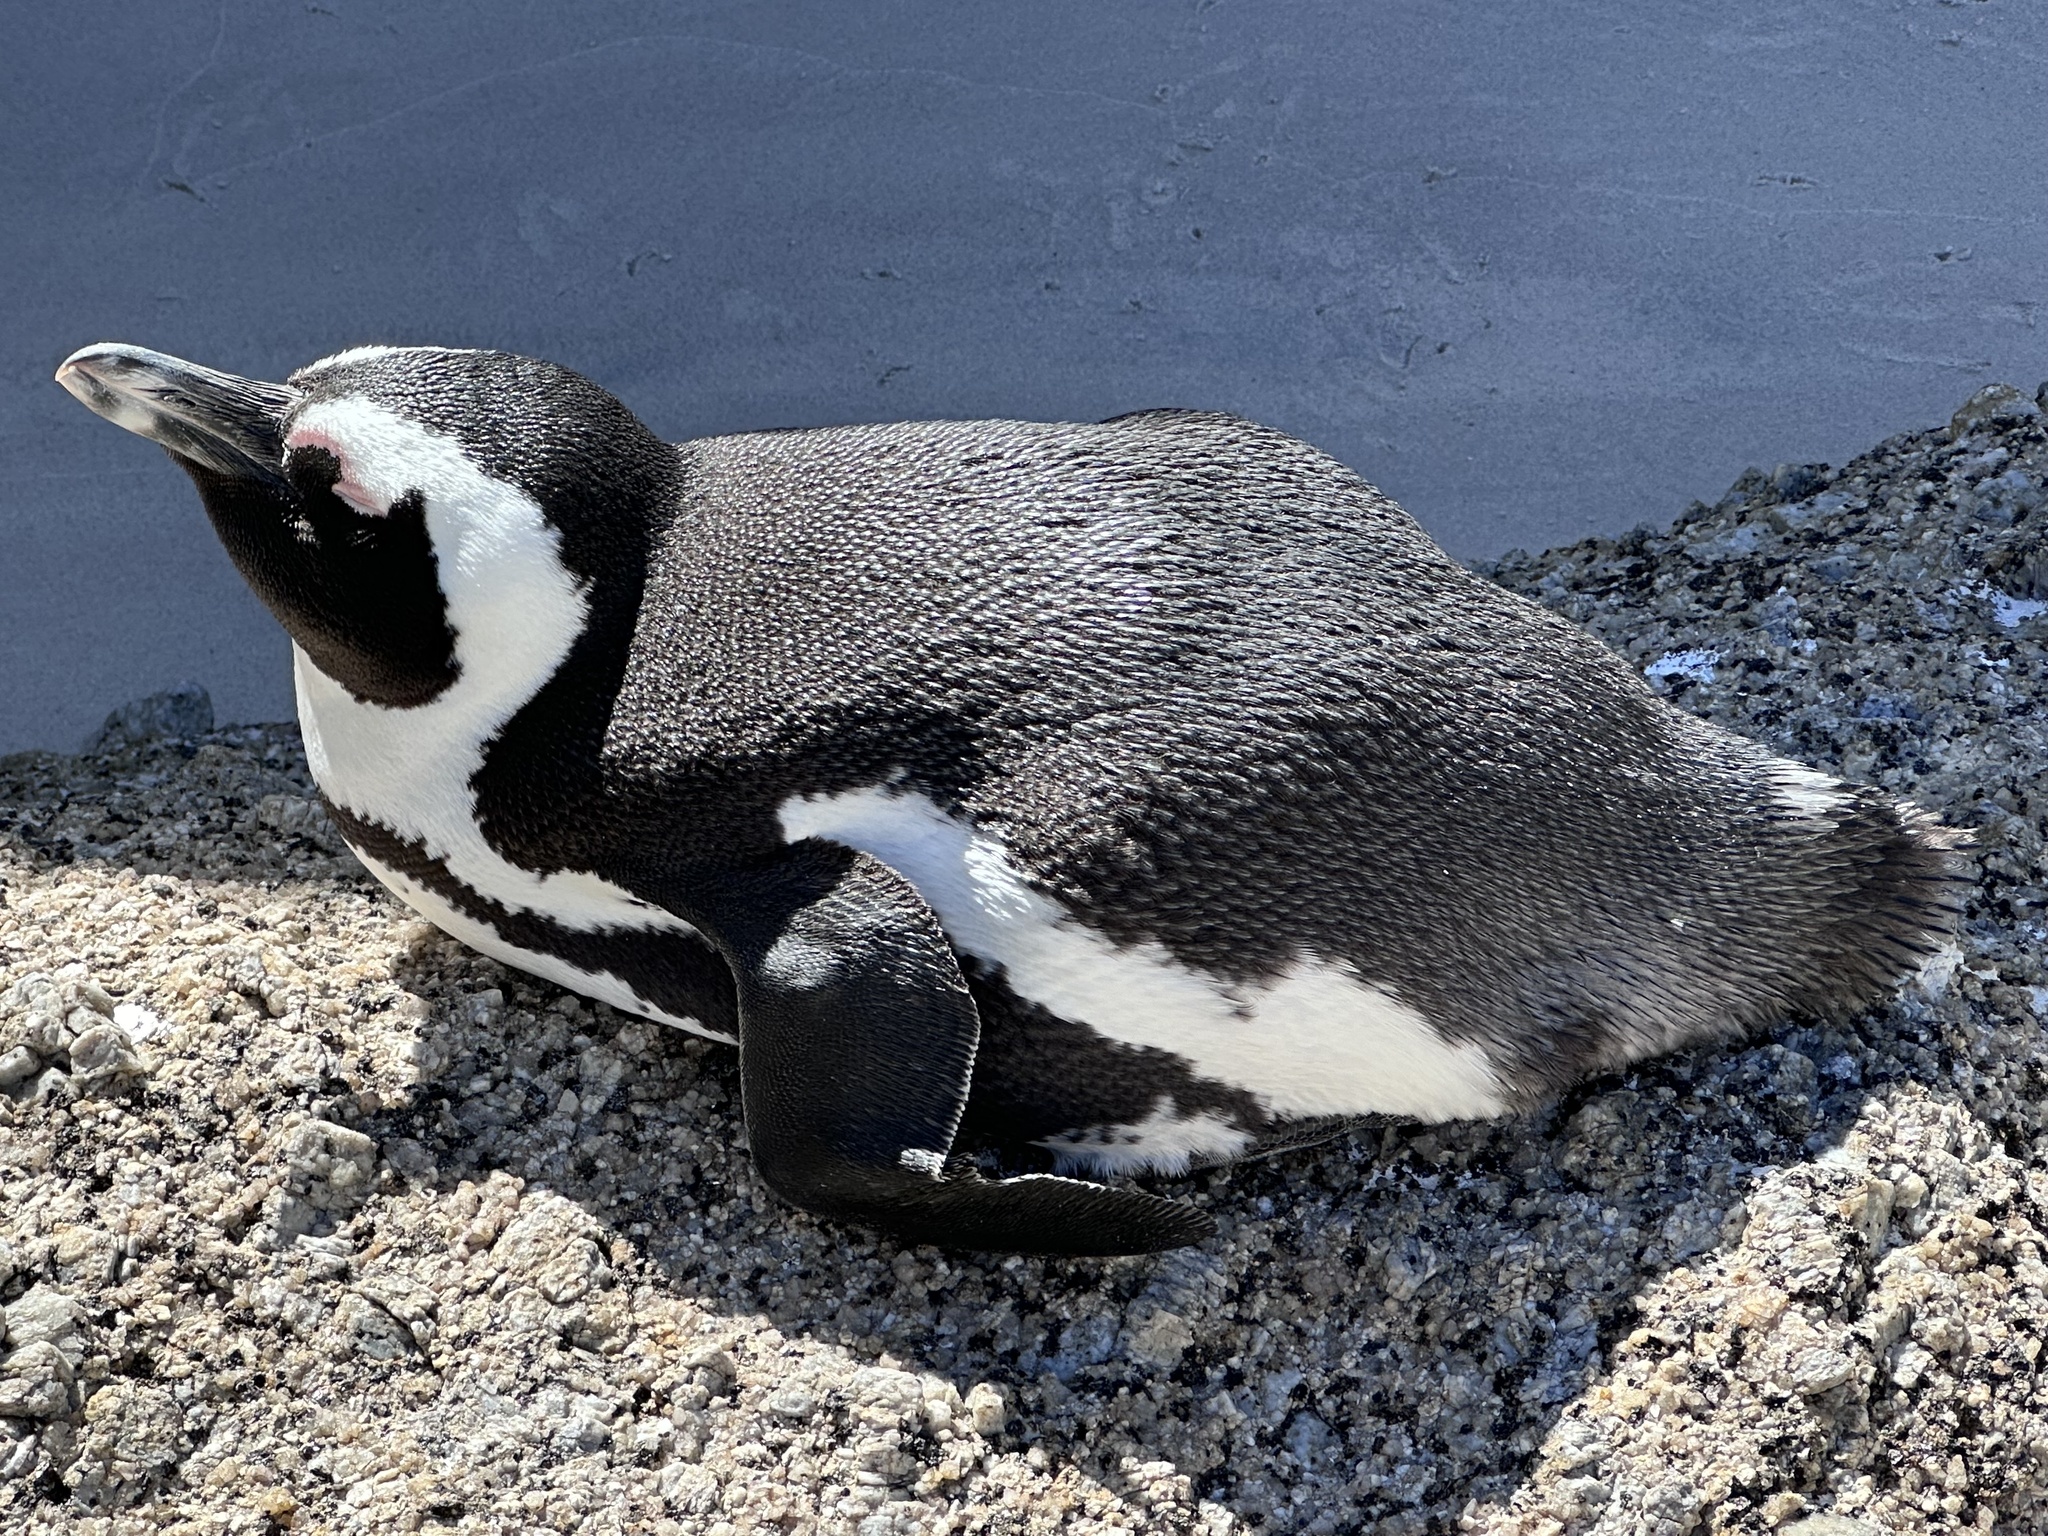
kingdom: Animalia
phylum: Chordata
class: Aves
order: Sphenisciformes
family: Spheniscidae
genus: Spheniscus
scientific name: Spheniscus demersus
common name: African penguin
